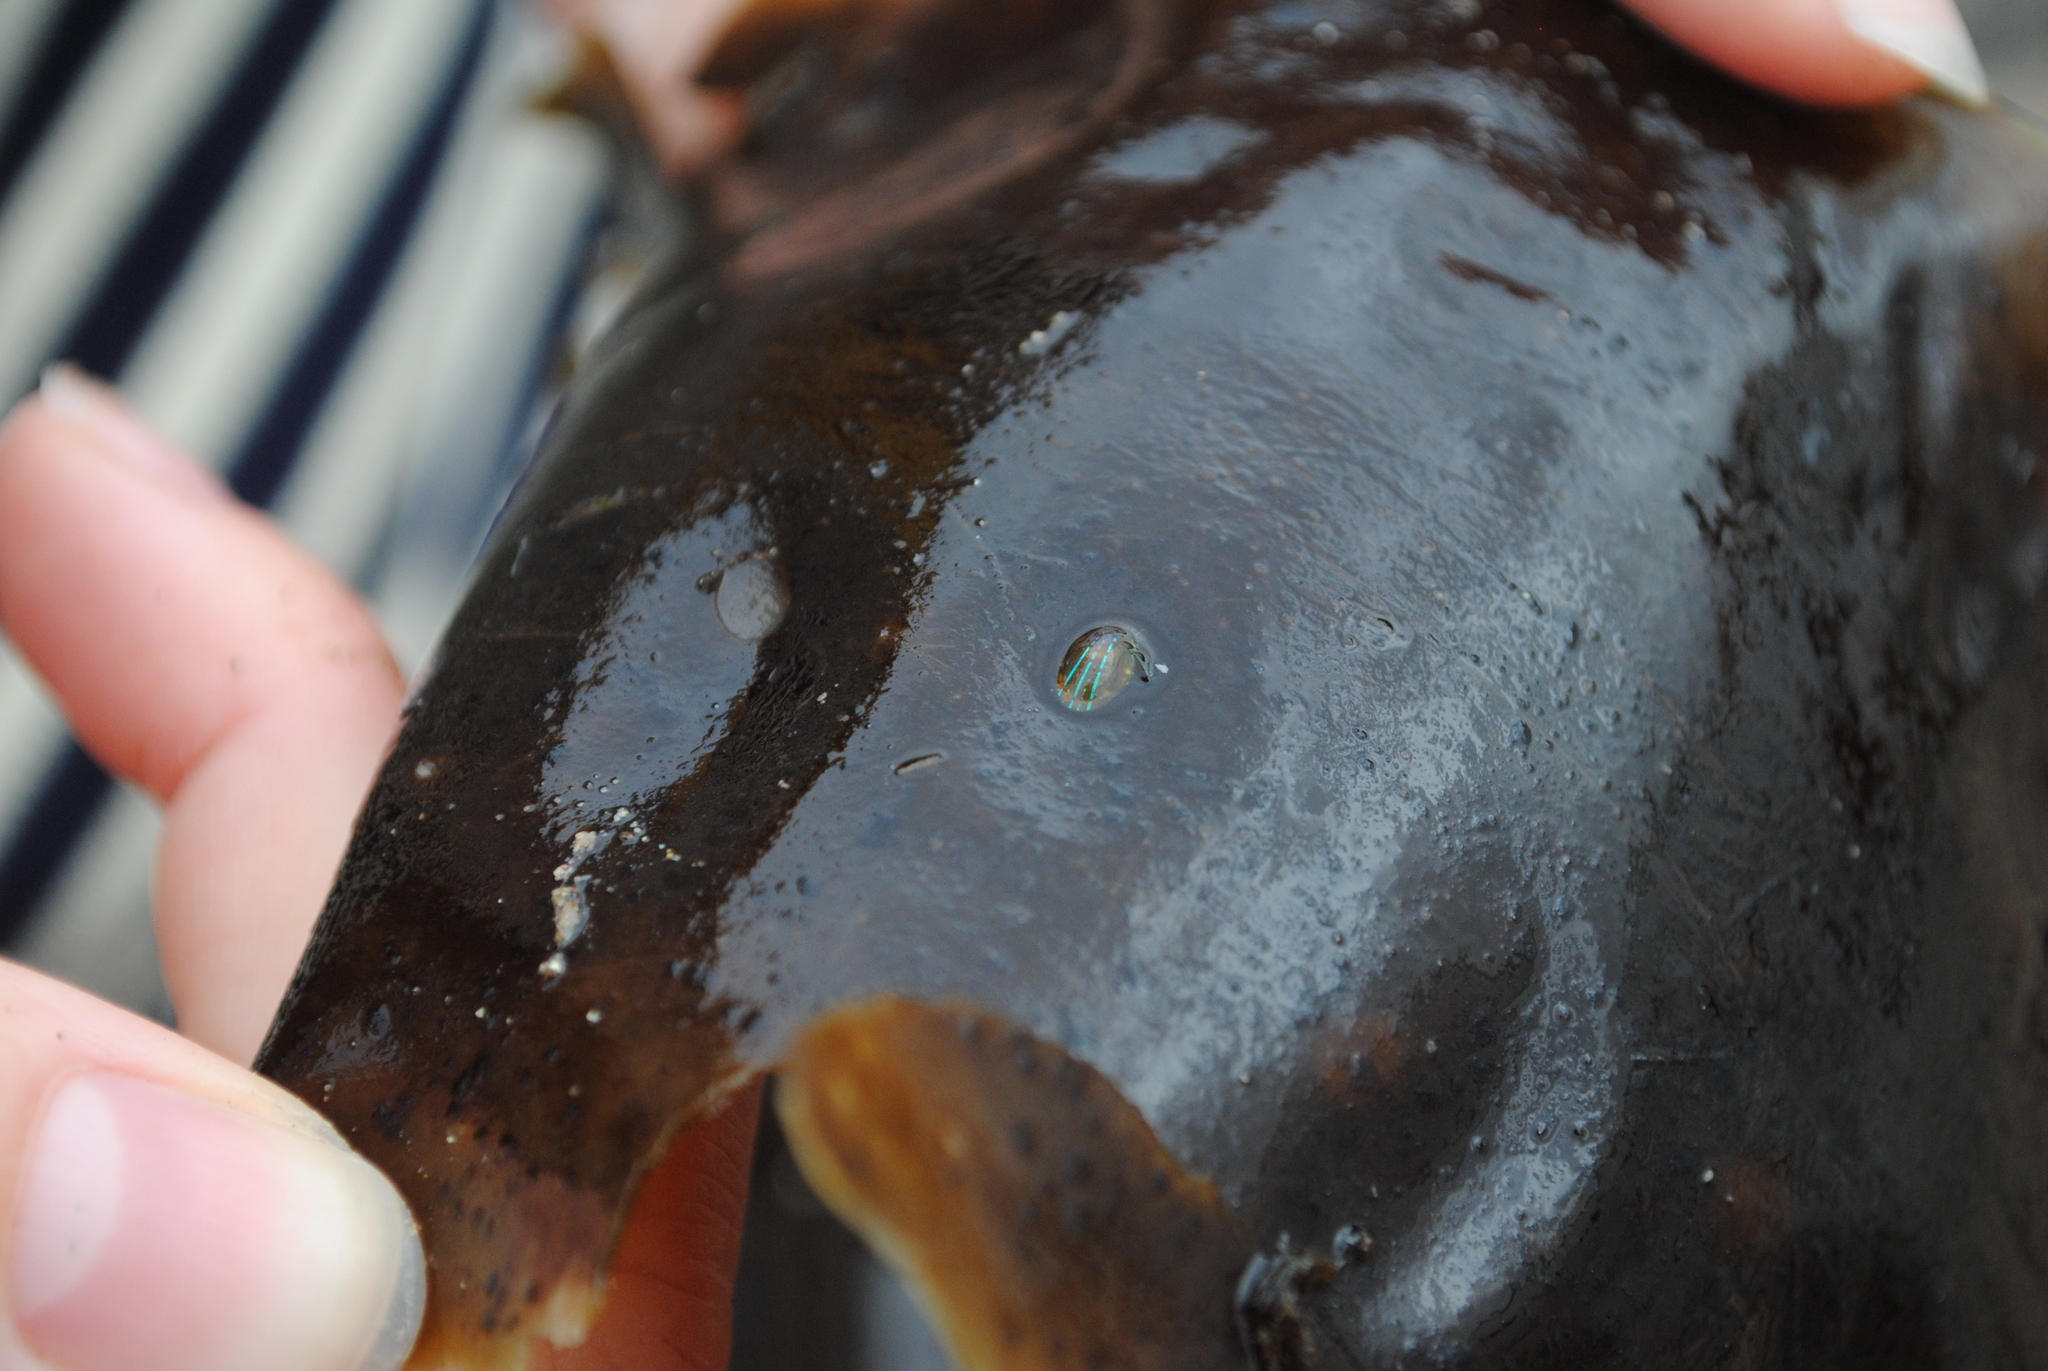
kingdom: Animalia
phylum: Mollusca
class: Gastropoda
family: Patellidae
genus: Patella
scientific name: Patella pellucida
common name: Blue-rayed limpet
